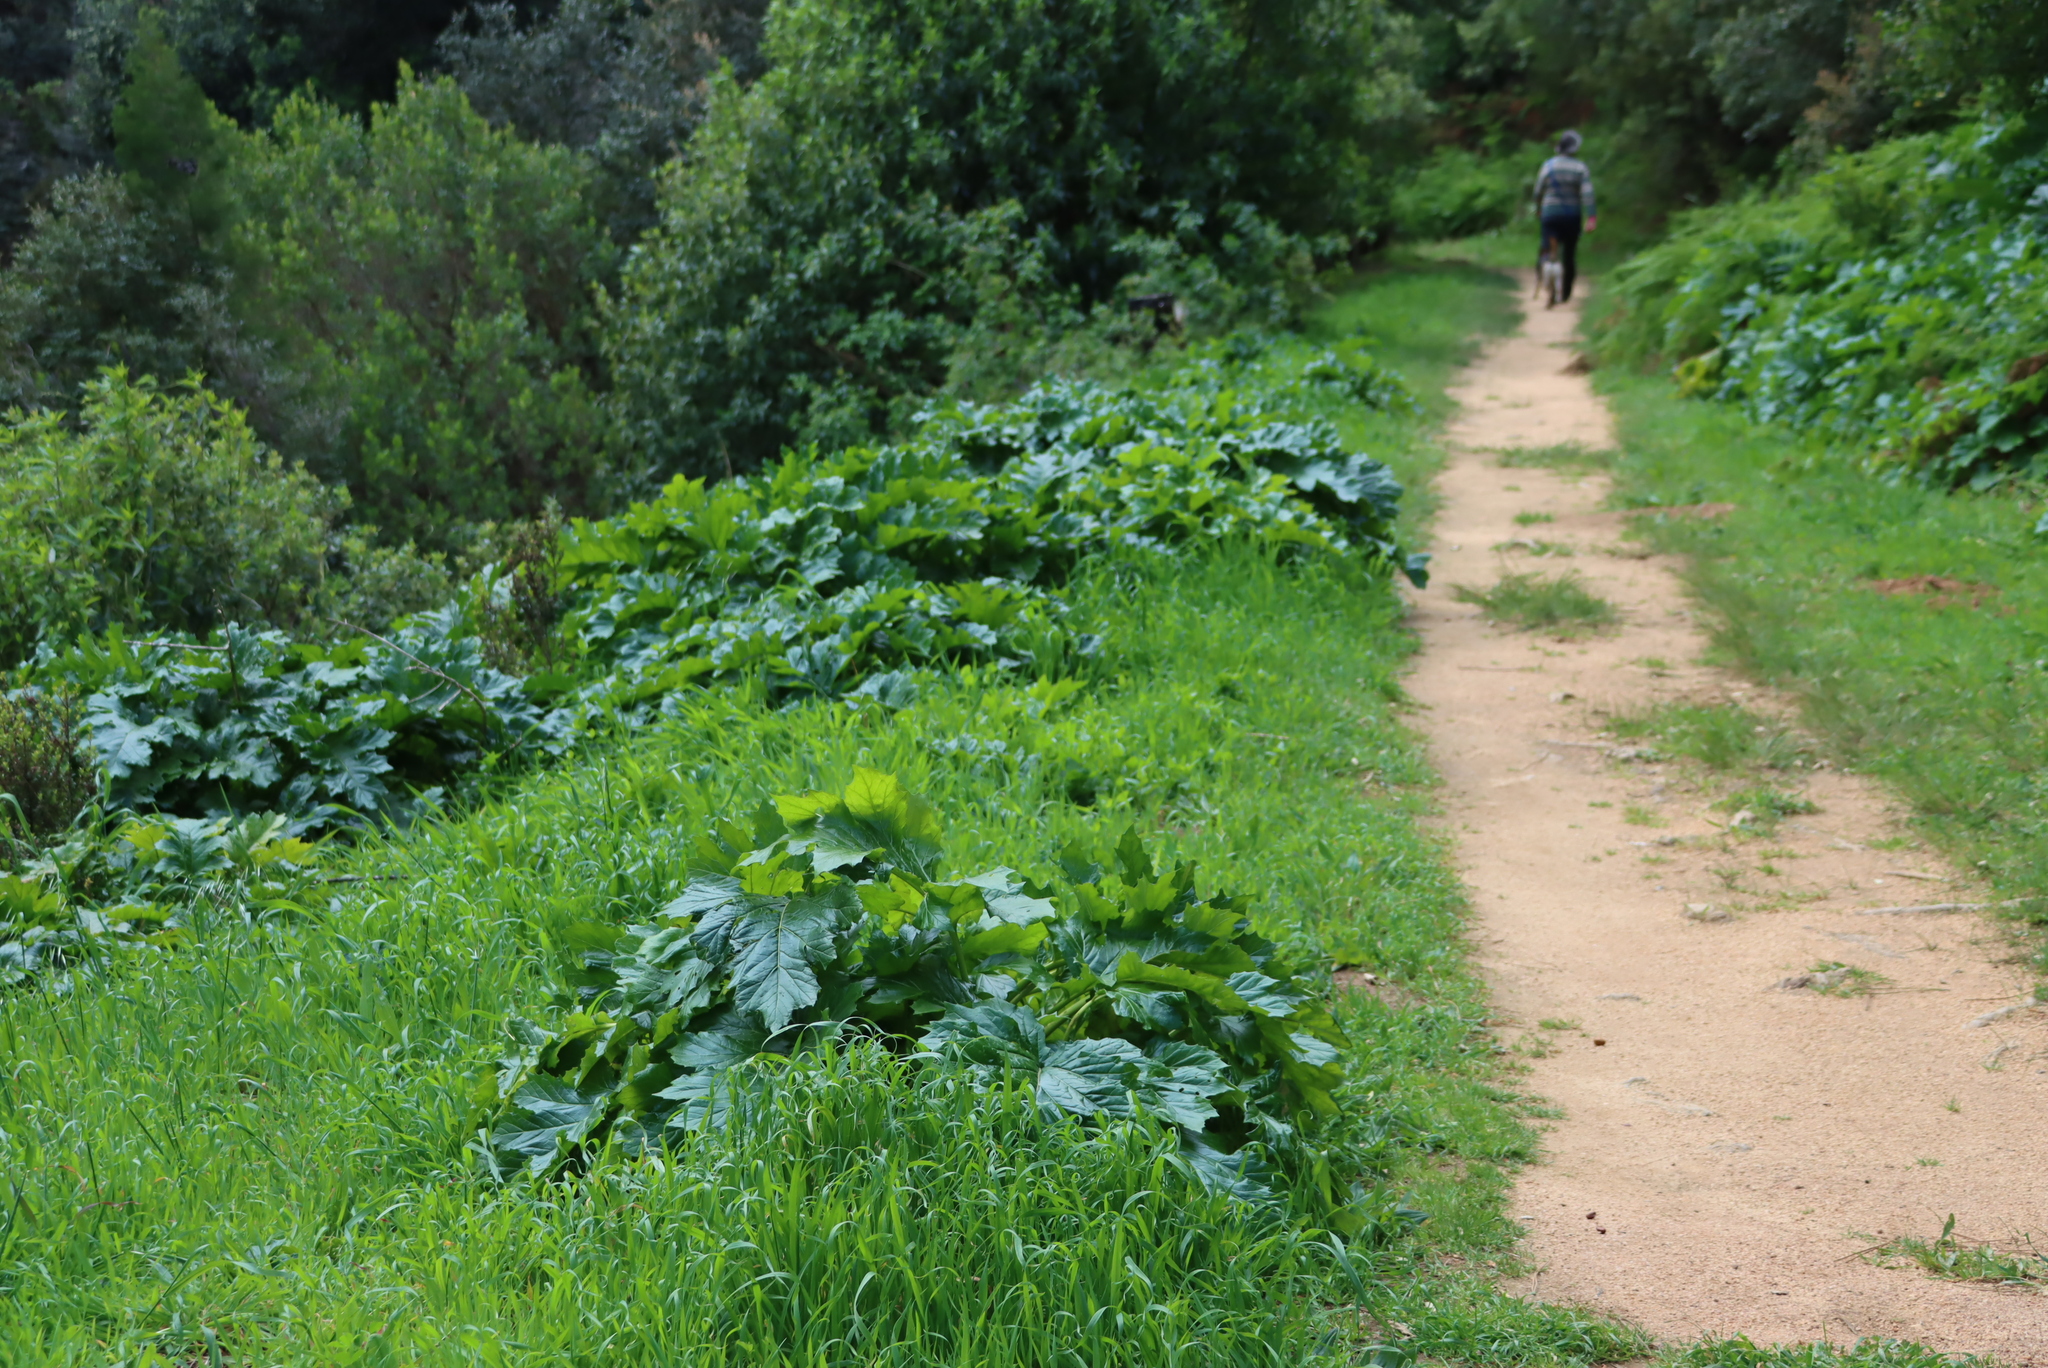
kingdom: Plantae
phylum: Tracheophyta
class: Magnoliopsida
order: Lamiales
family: Acanthaceae
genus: Acanthus
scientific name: Acanthus mollis
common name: Bear's-breech
